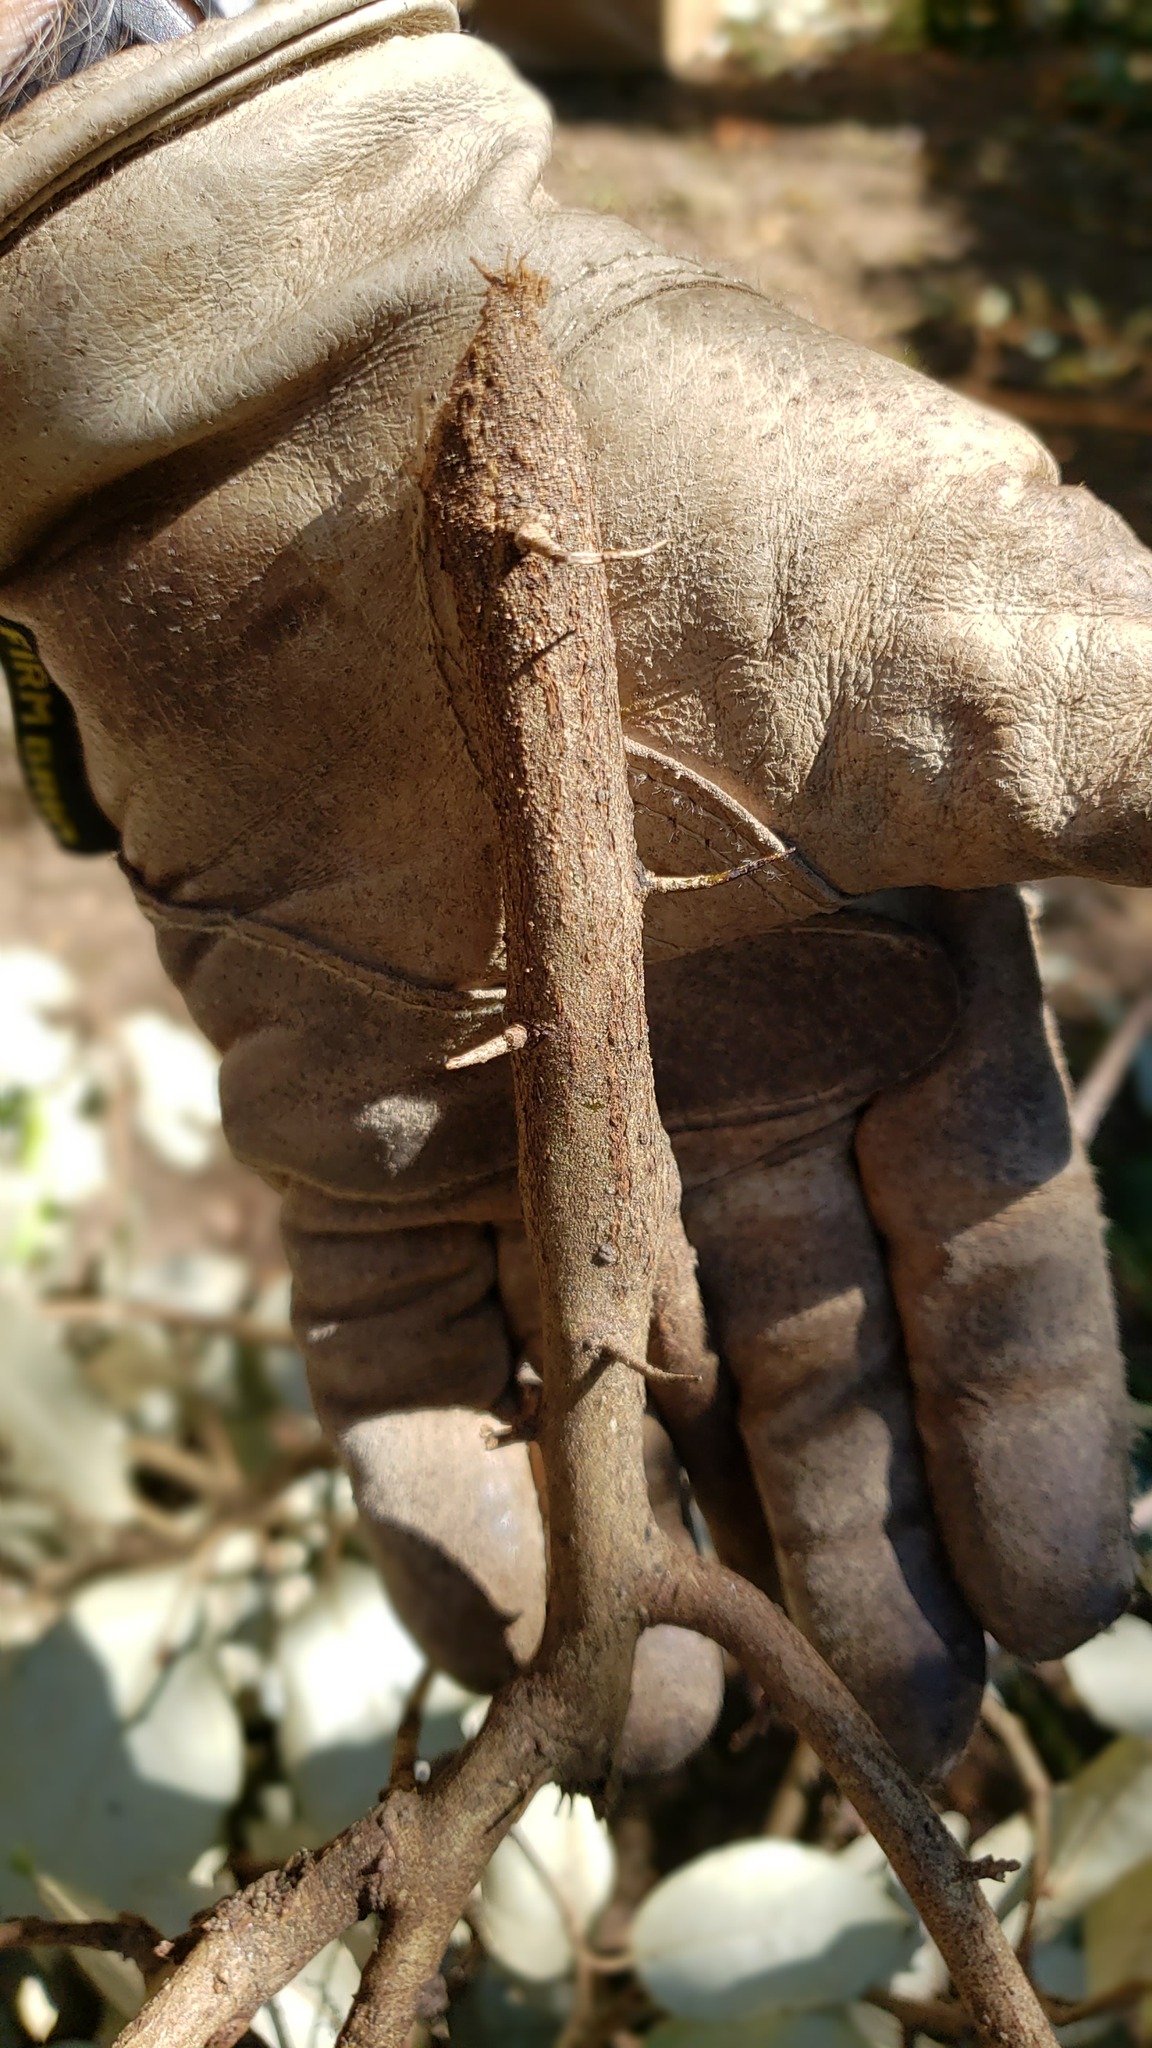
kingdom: Plantae
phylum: Tracheophyta
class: Magnoliopsida
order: Rosales
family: Elaeagnaceae
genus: Elaeagnus
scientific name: Elaeagnus pungens
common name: Spiny oleaster
